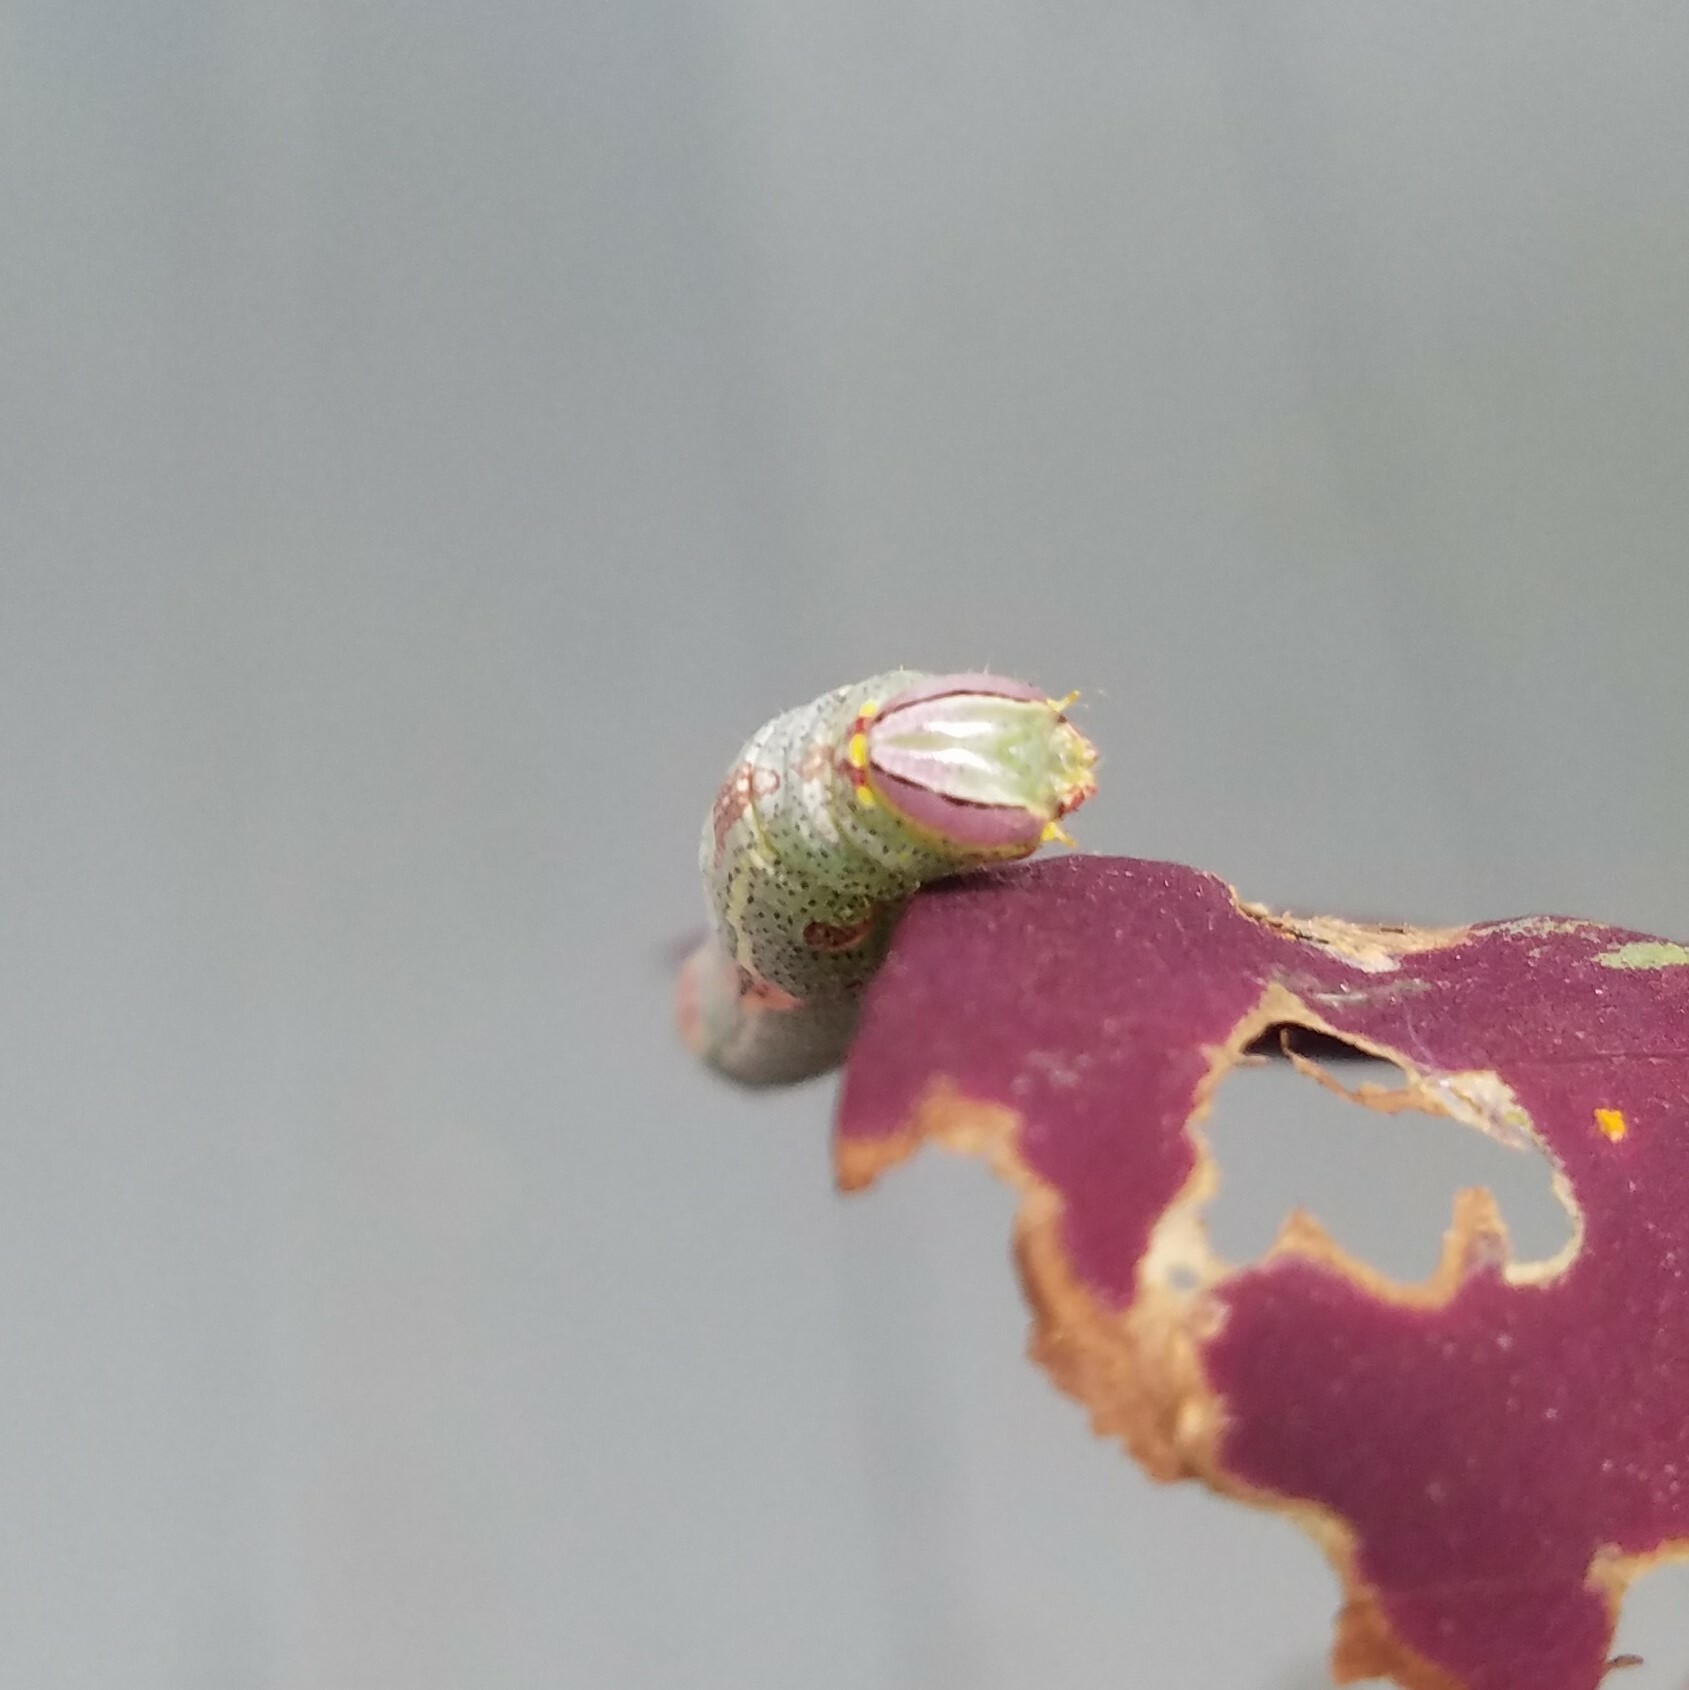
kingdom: Animalia
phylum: Arthropoda
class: Insecta
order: Lepidoptera
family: Notodontidae
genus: Disphragis
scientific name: Disphragis Cecrita guttivitta
